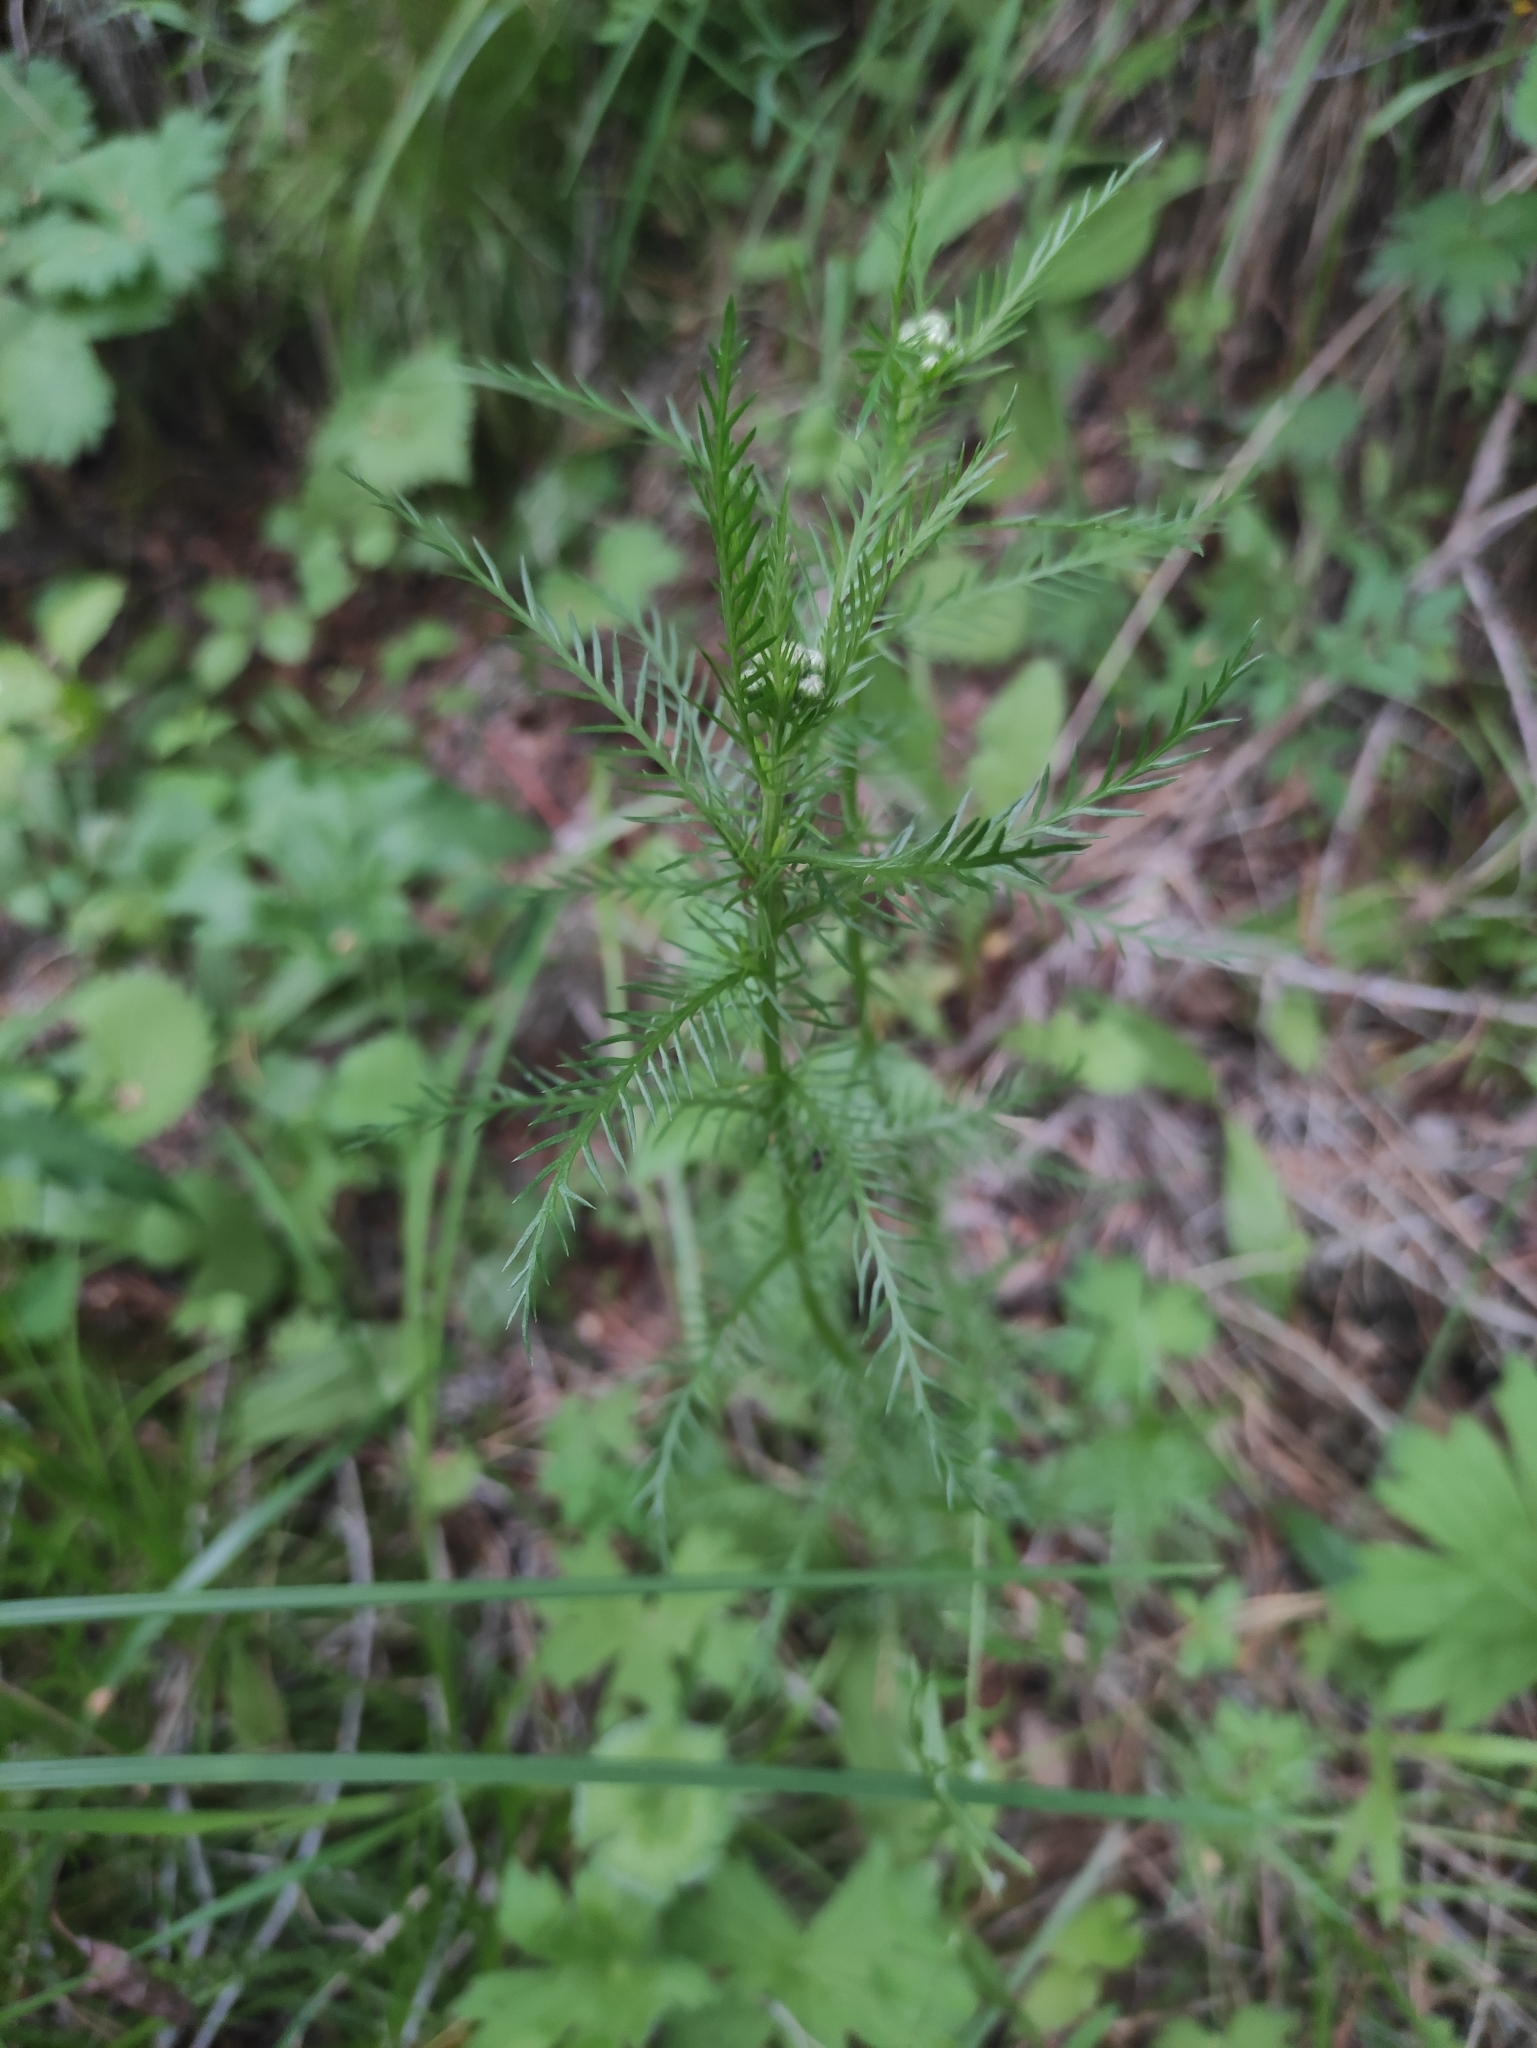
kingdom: Plantae
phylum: Tracheophyta
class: Magnoliopsida
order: Asterales
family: Asteraceae
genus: Achillea
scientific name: Achillea impatiens
